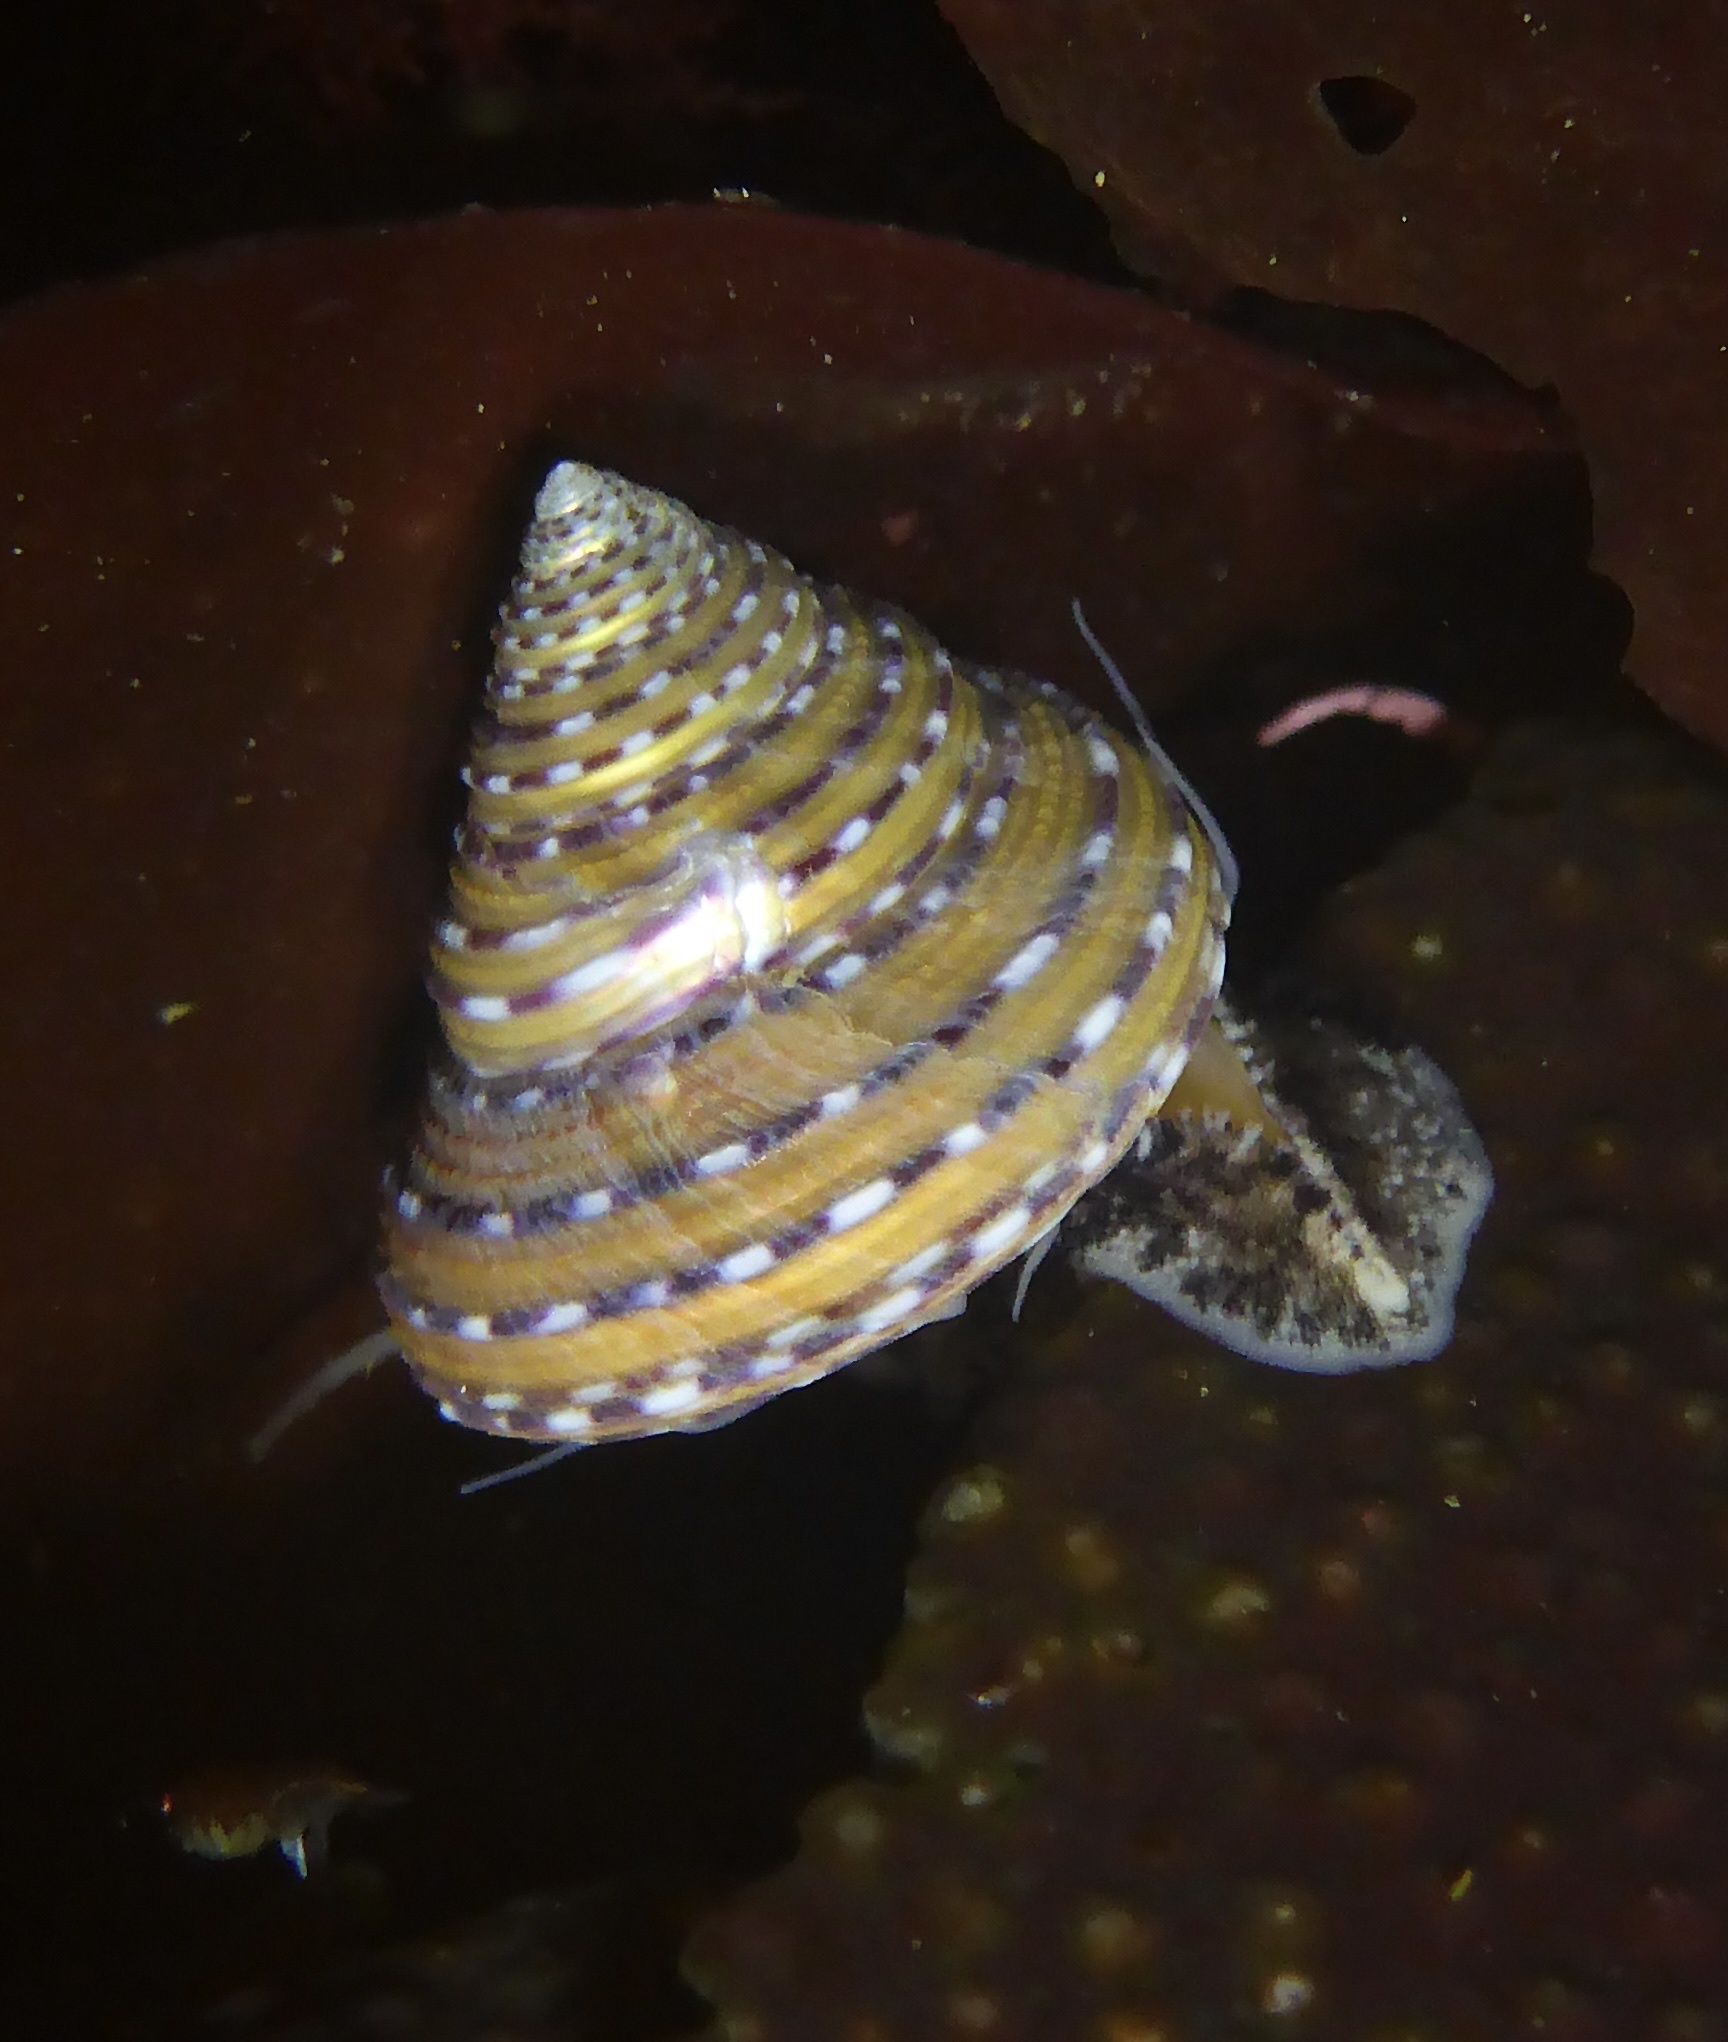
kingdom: Animalia
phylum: Mollusca
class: Gastropoda
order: Trochida
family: Calliostomatidae
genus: Calliostoma
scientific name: Calliostoma tricolor
